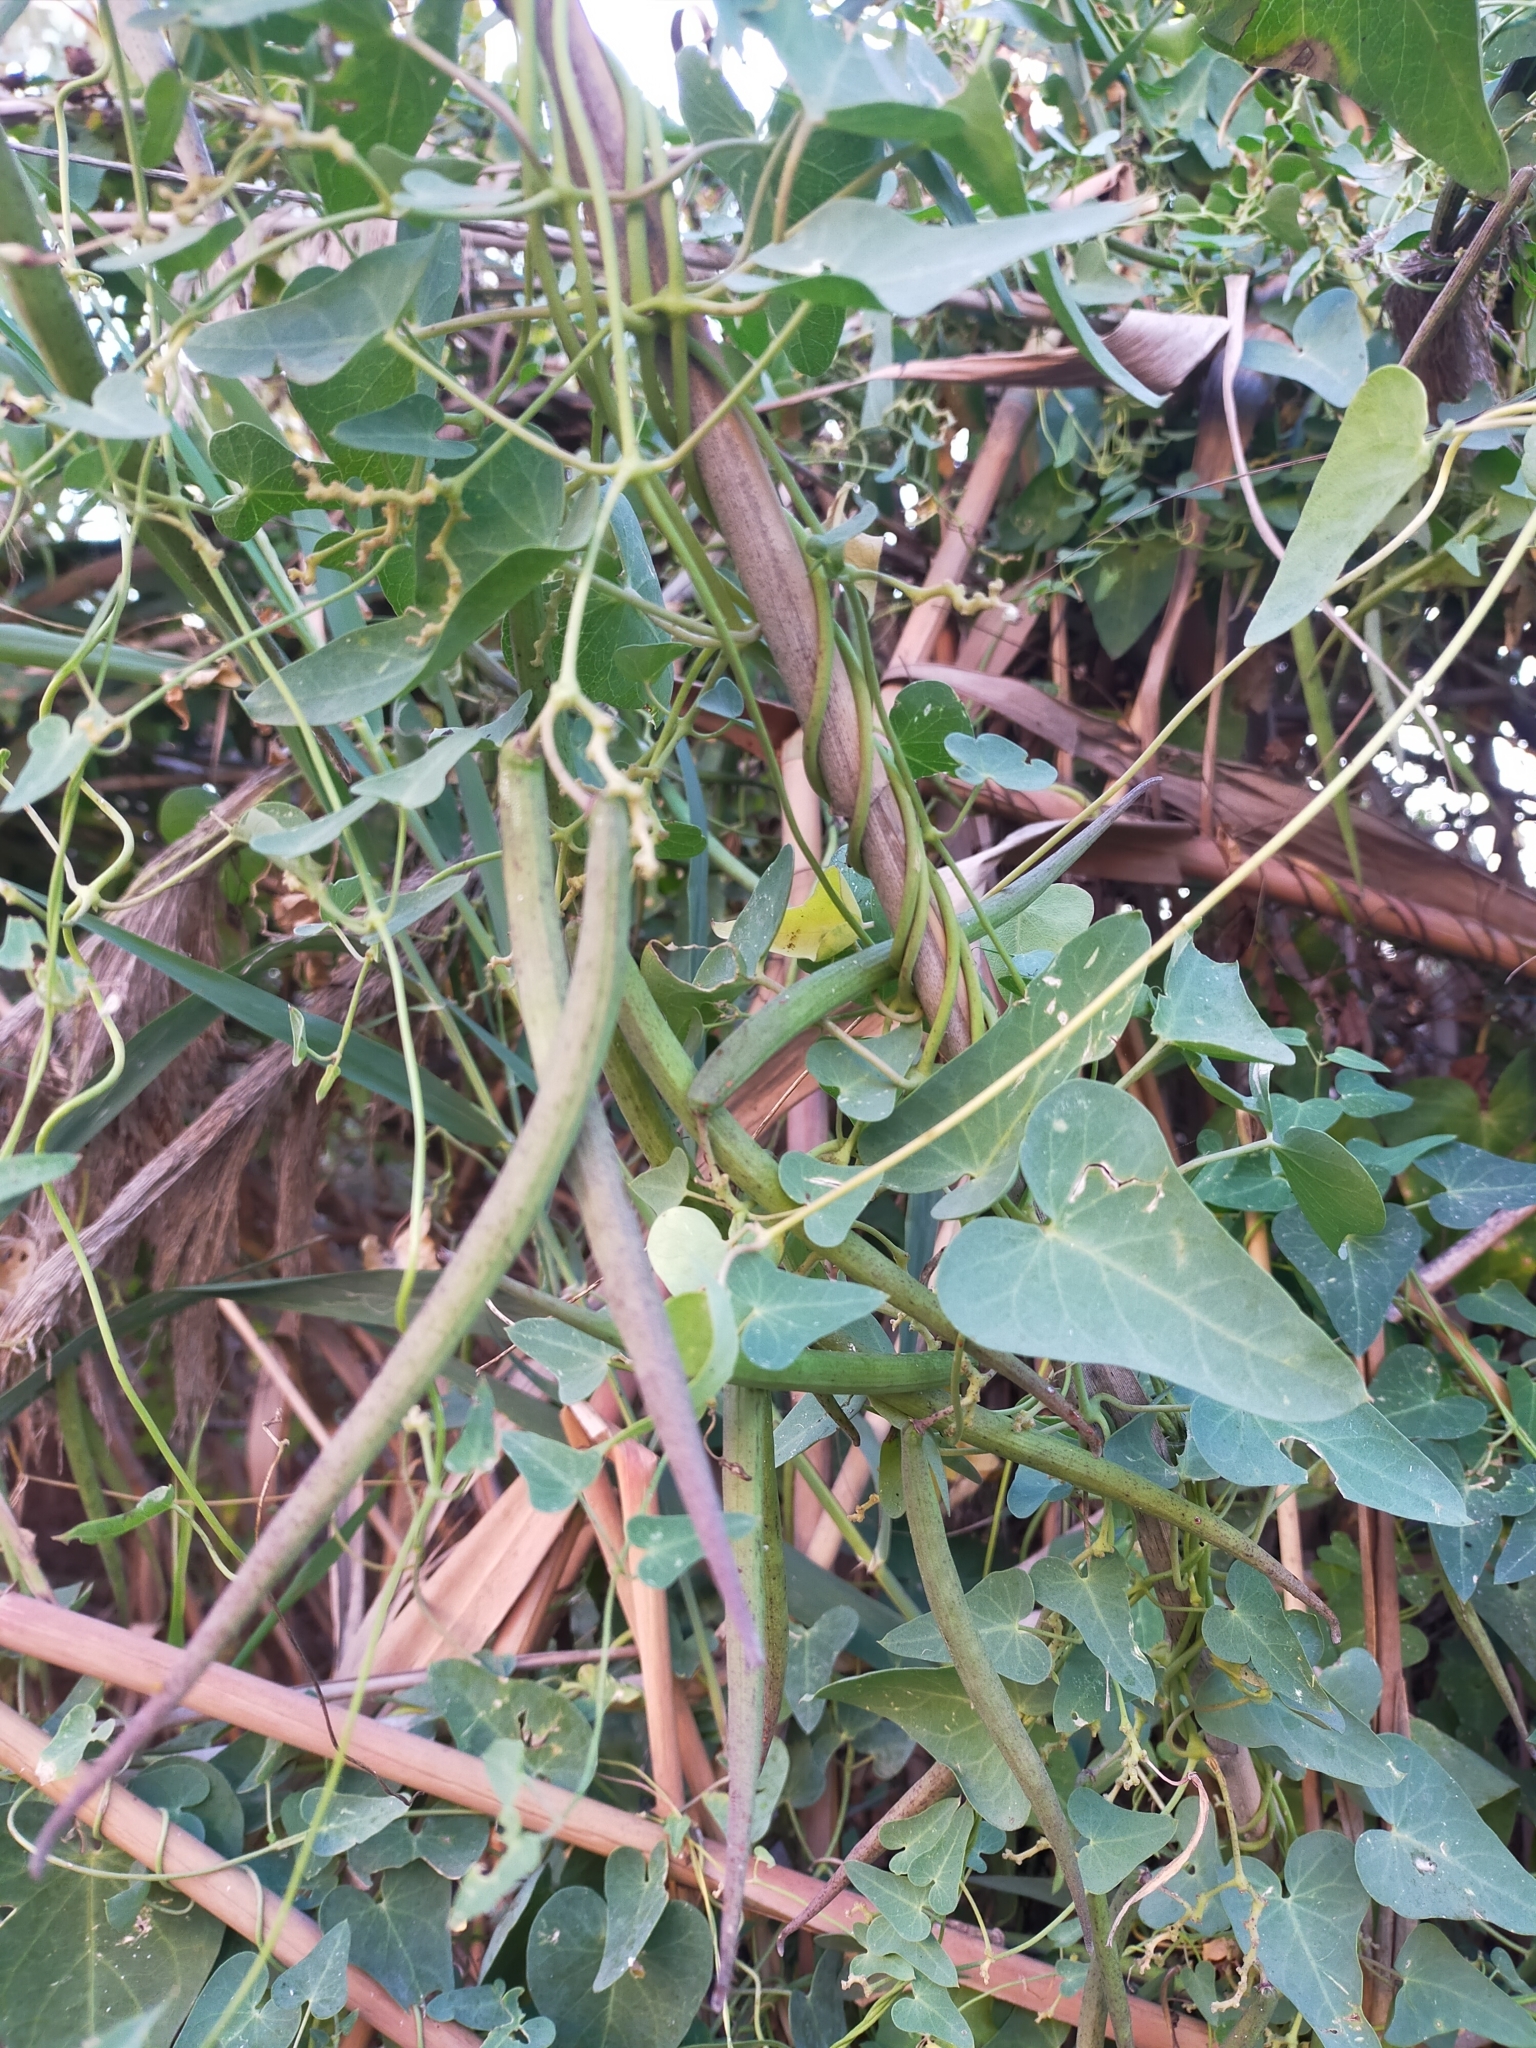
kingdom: Plantae
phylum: Tracheophyta
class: Magnoliopsida
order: Gentianales
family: Apocynaceae
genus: Cynanchum
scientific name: Cynanchum acutum
